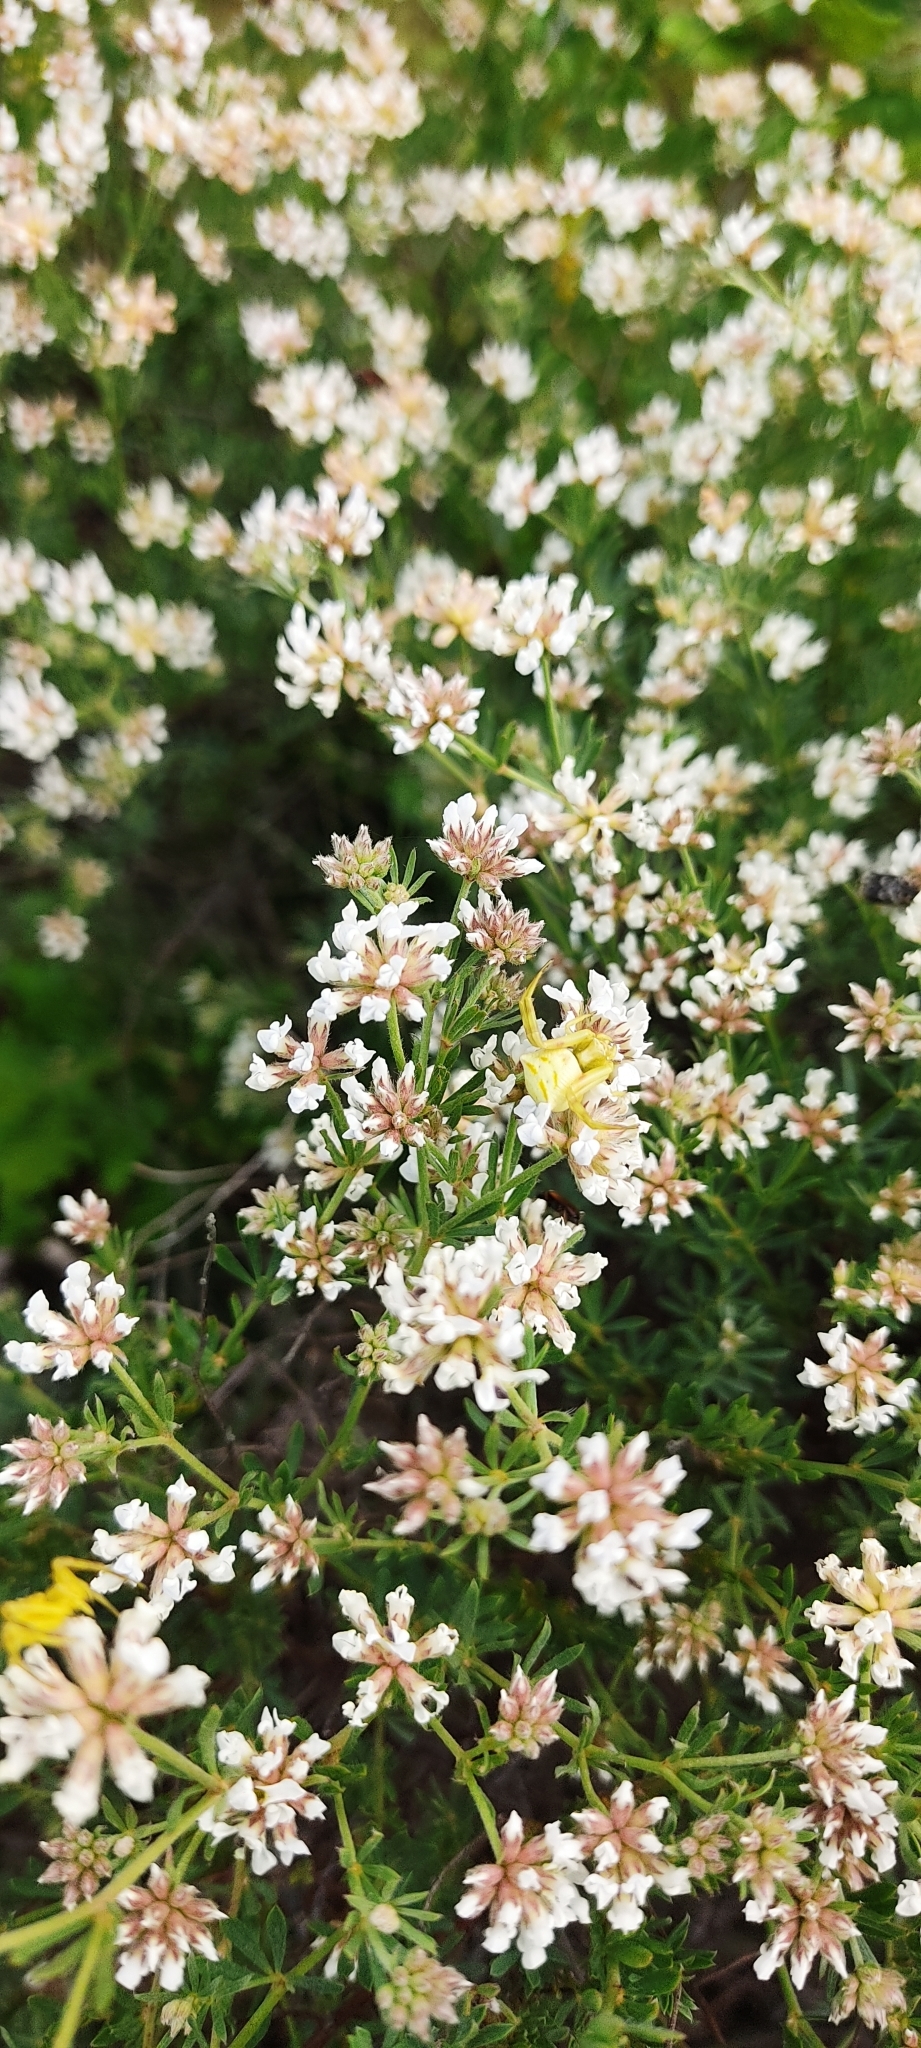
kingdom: Animalia
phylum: Arthropoda
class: Arachnida
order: Araneae
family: Thomisidae
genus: Thomisus
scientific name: Thomisus onustus
